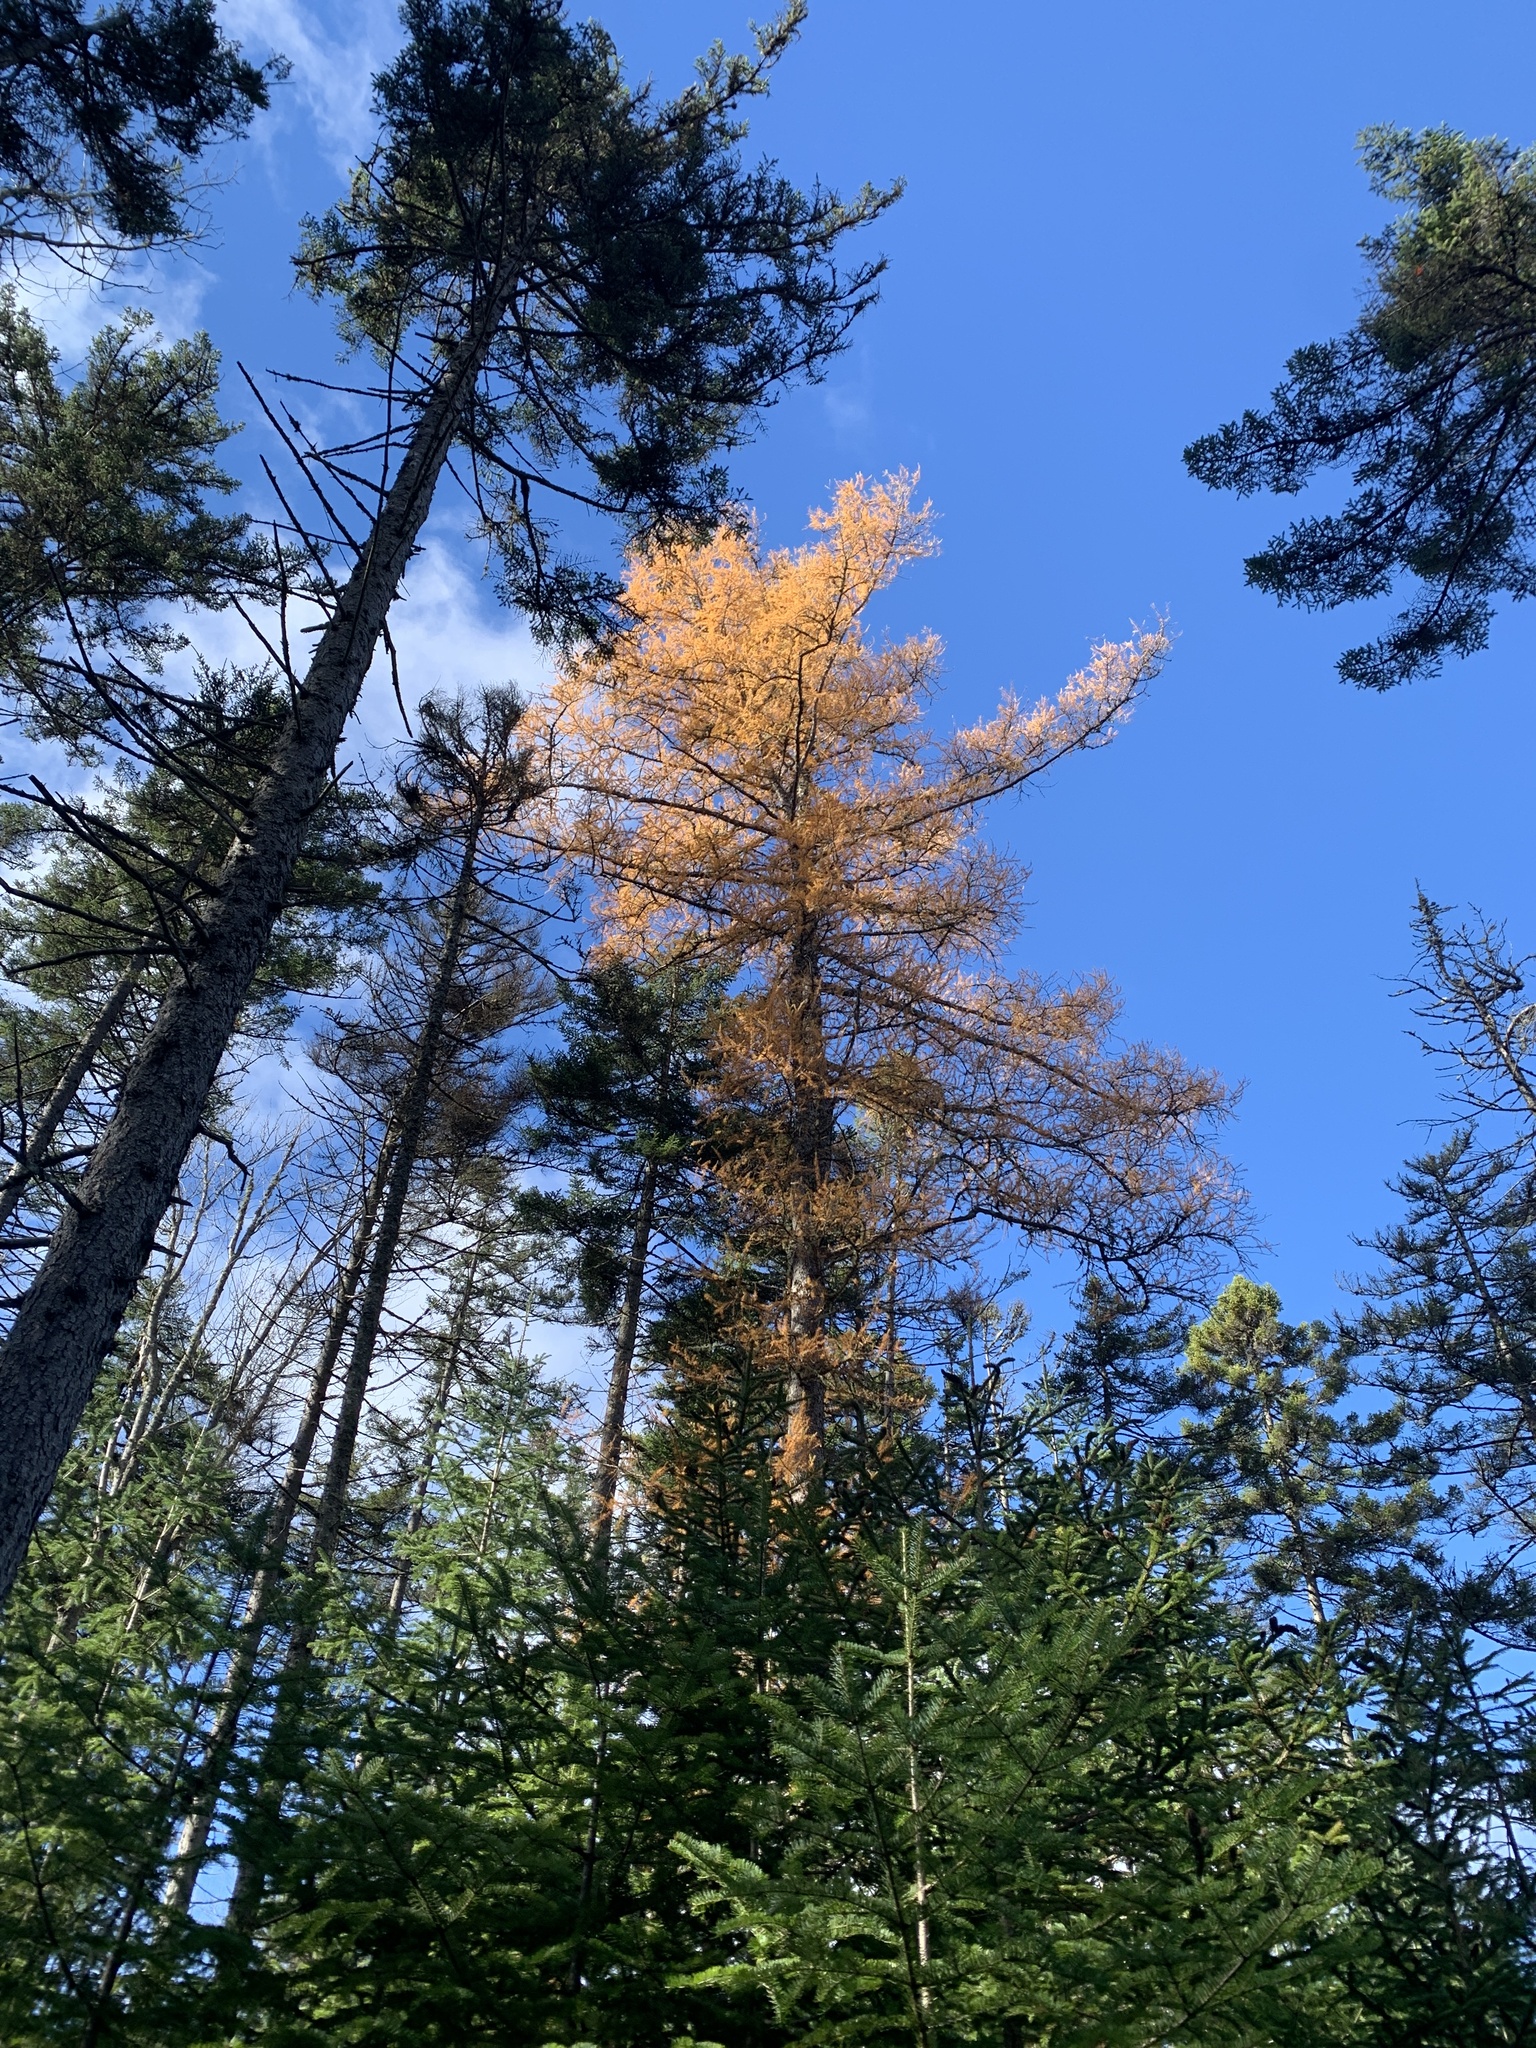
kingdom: Plantae
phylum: Tracheophyta
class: Pinopsida
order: Pinales
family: Pinaceae
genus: Larix
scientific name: Larix laricina
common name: American larch
